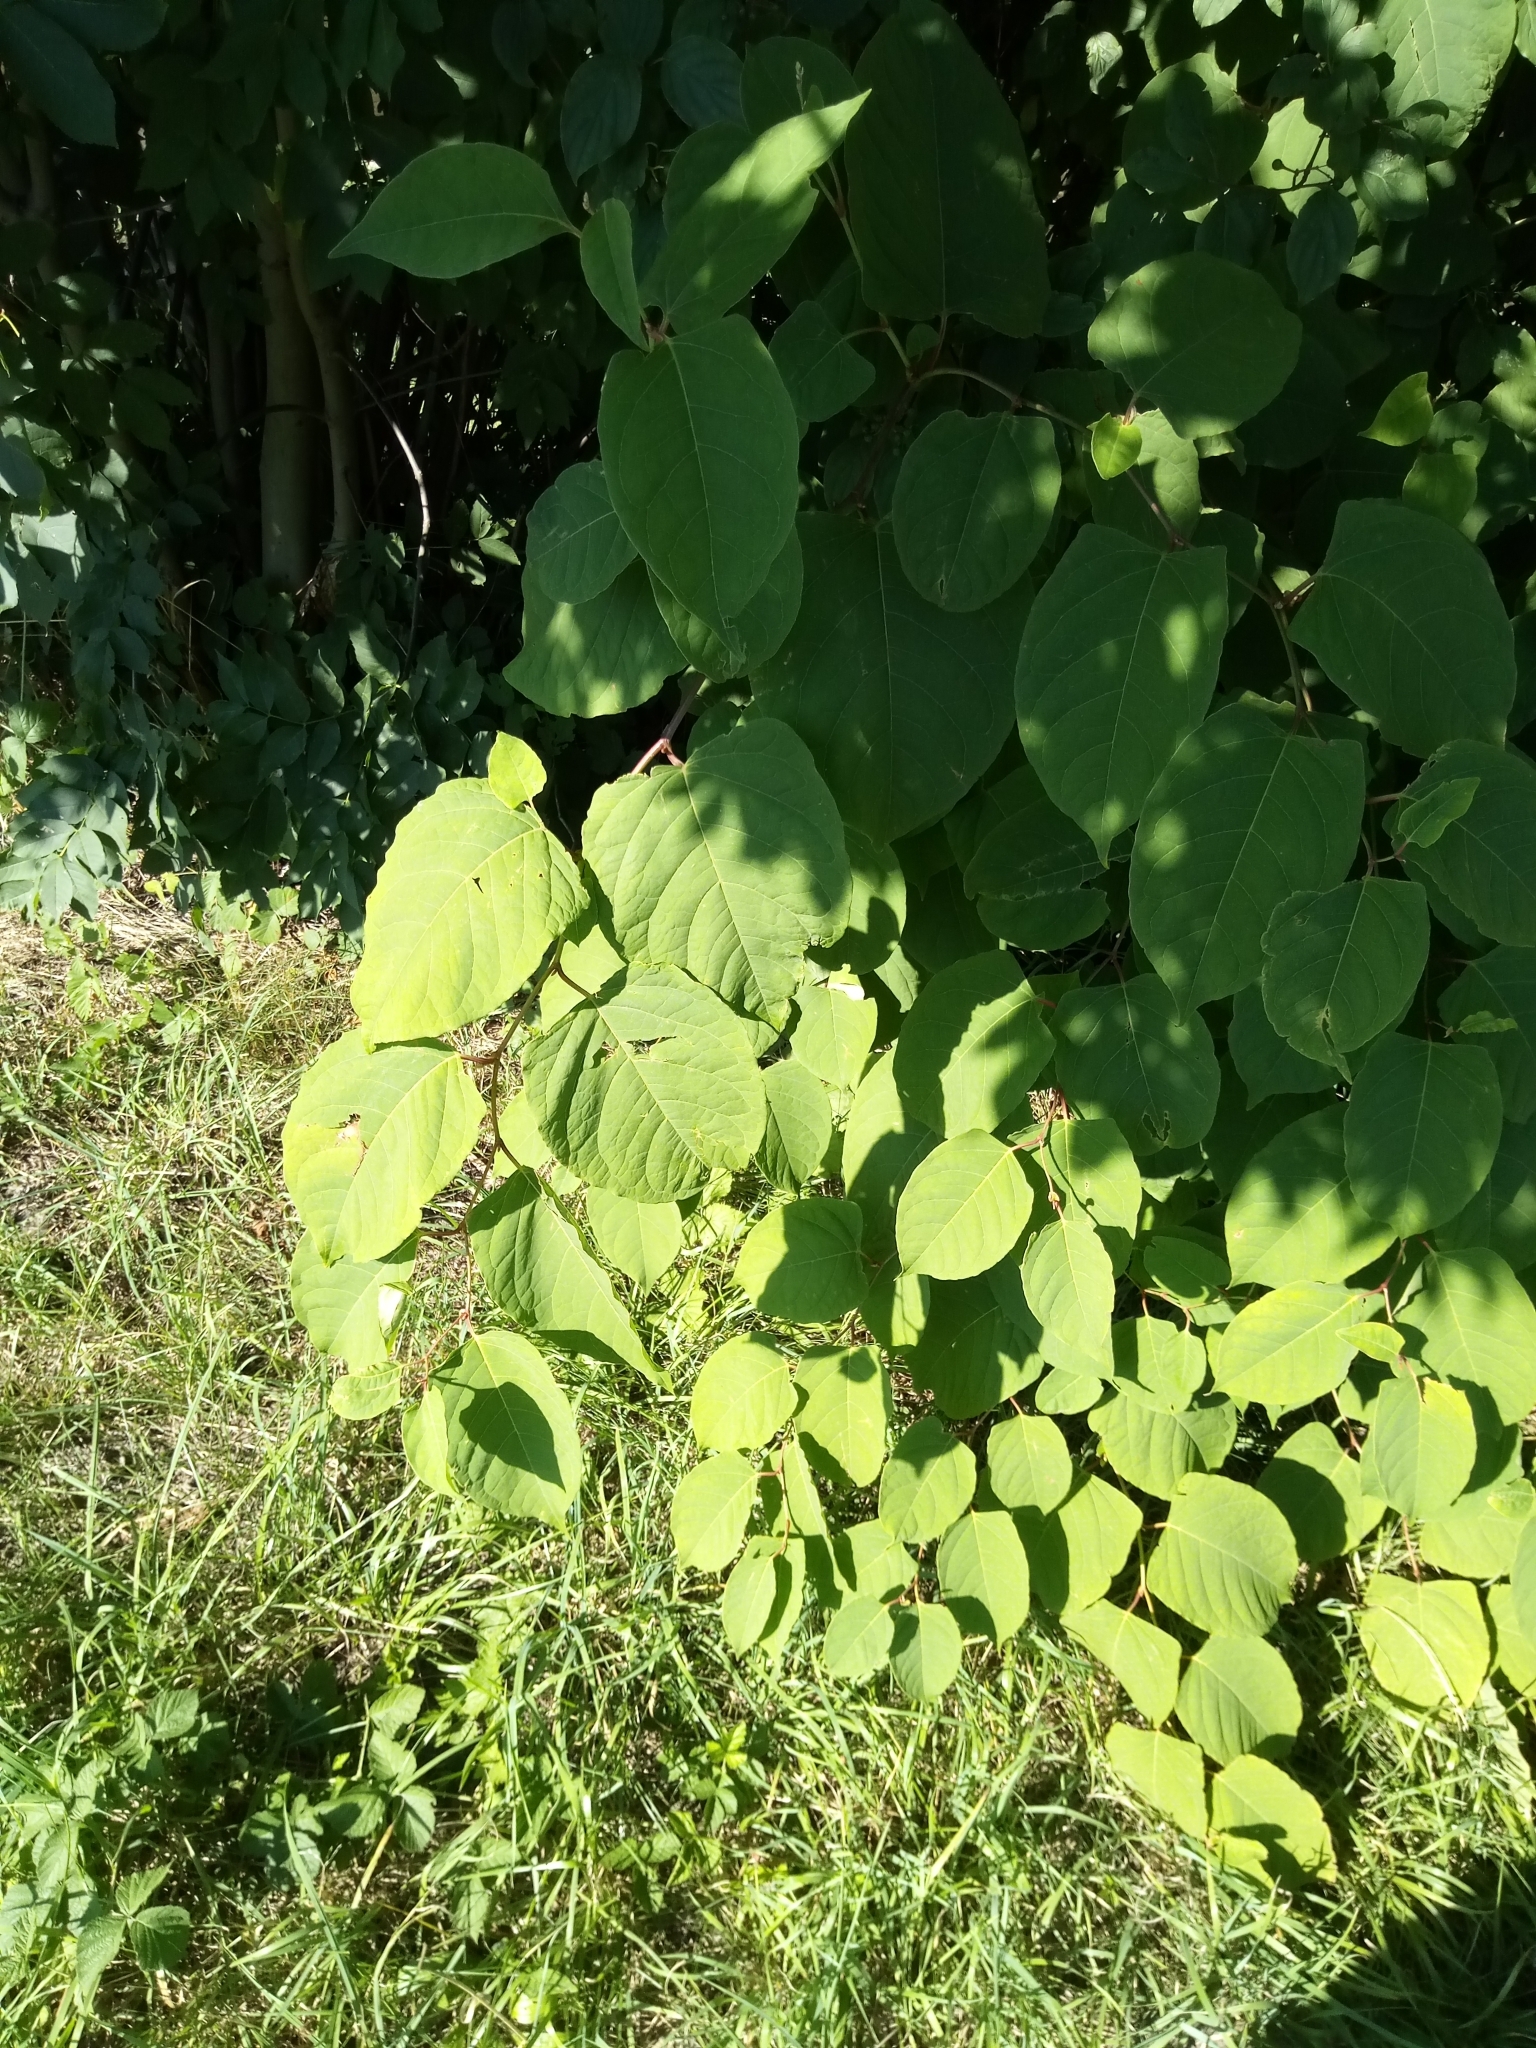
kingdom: Plantae
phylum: Tracheophyta
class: Magnoliopsida
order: Caryophyllales
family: Polygonaceae
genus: Reynoutria
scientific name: Reynoutria bohemica
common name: Bohemian knotweed
